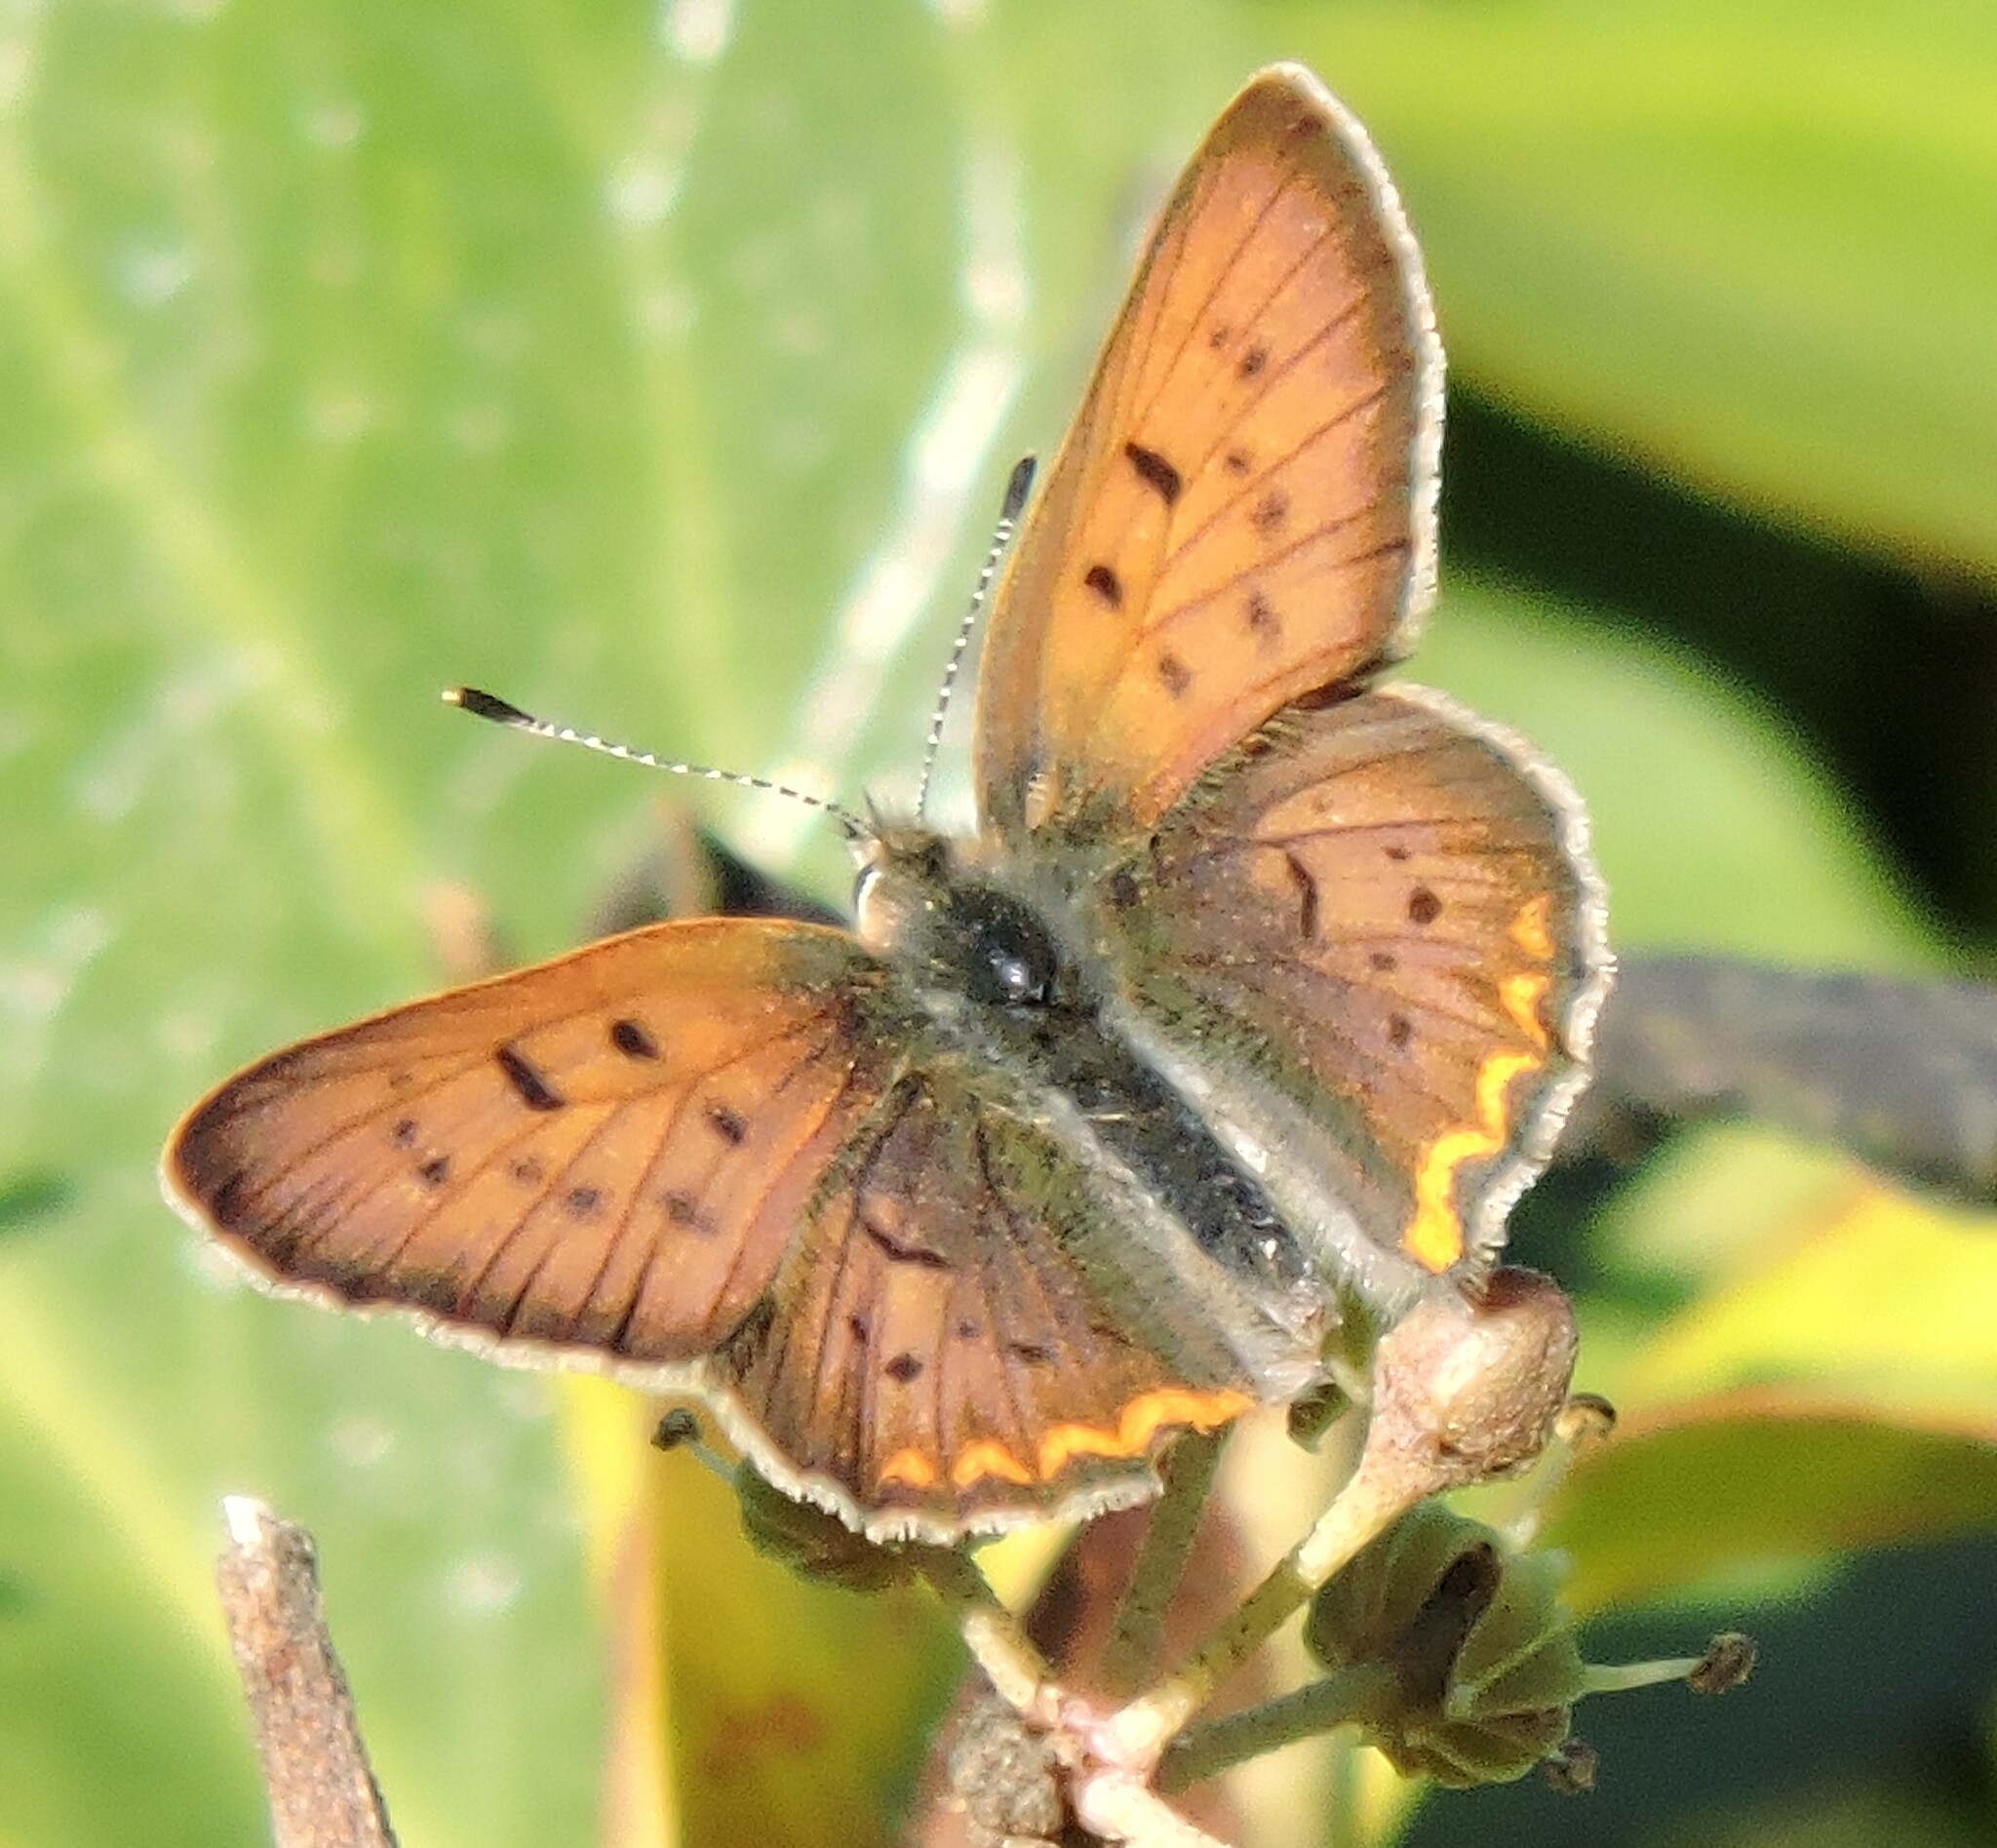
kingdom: Animalia
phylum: Arthropoda
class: Insecta
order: Lepidoptera
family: Lycaenidae
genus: Tharsalea
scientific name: Tharsalea helloides
